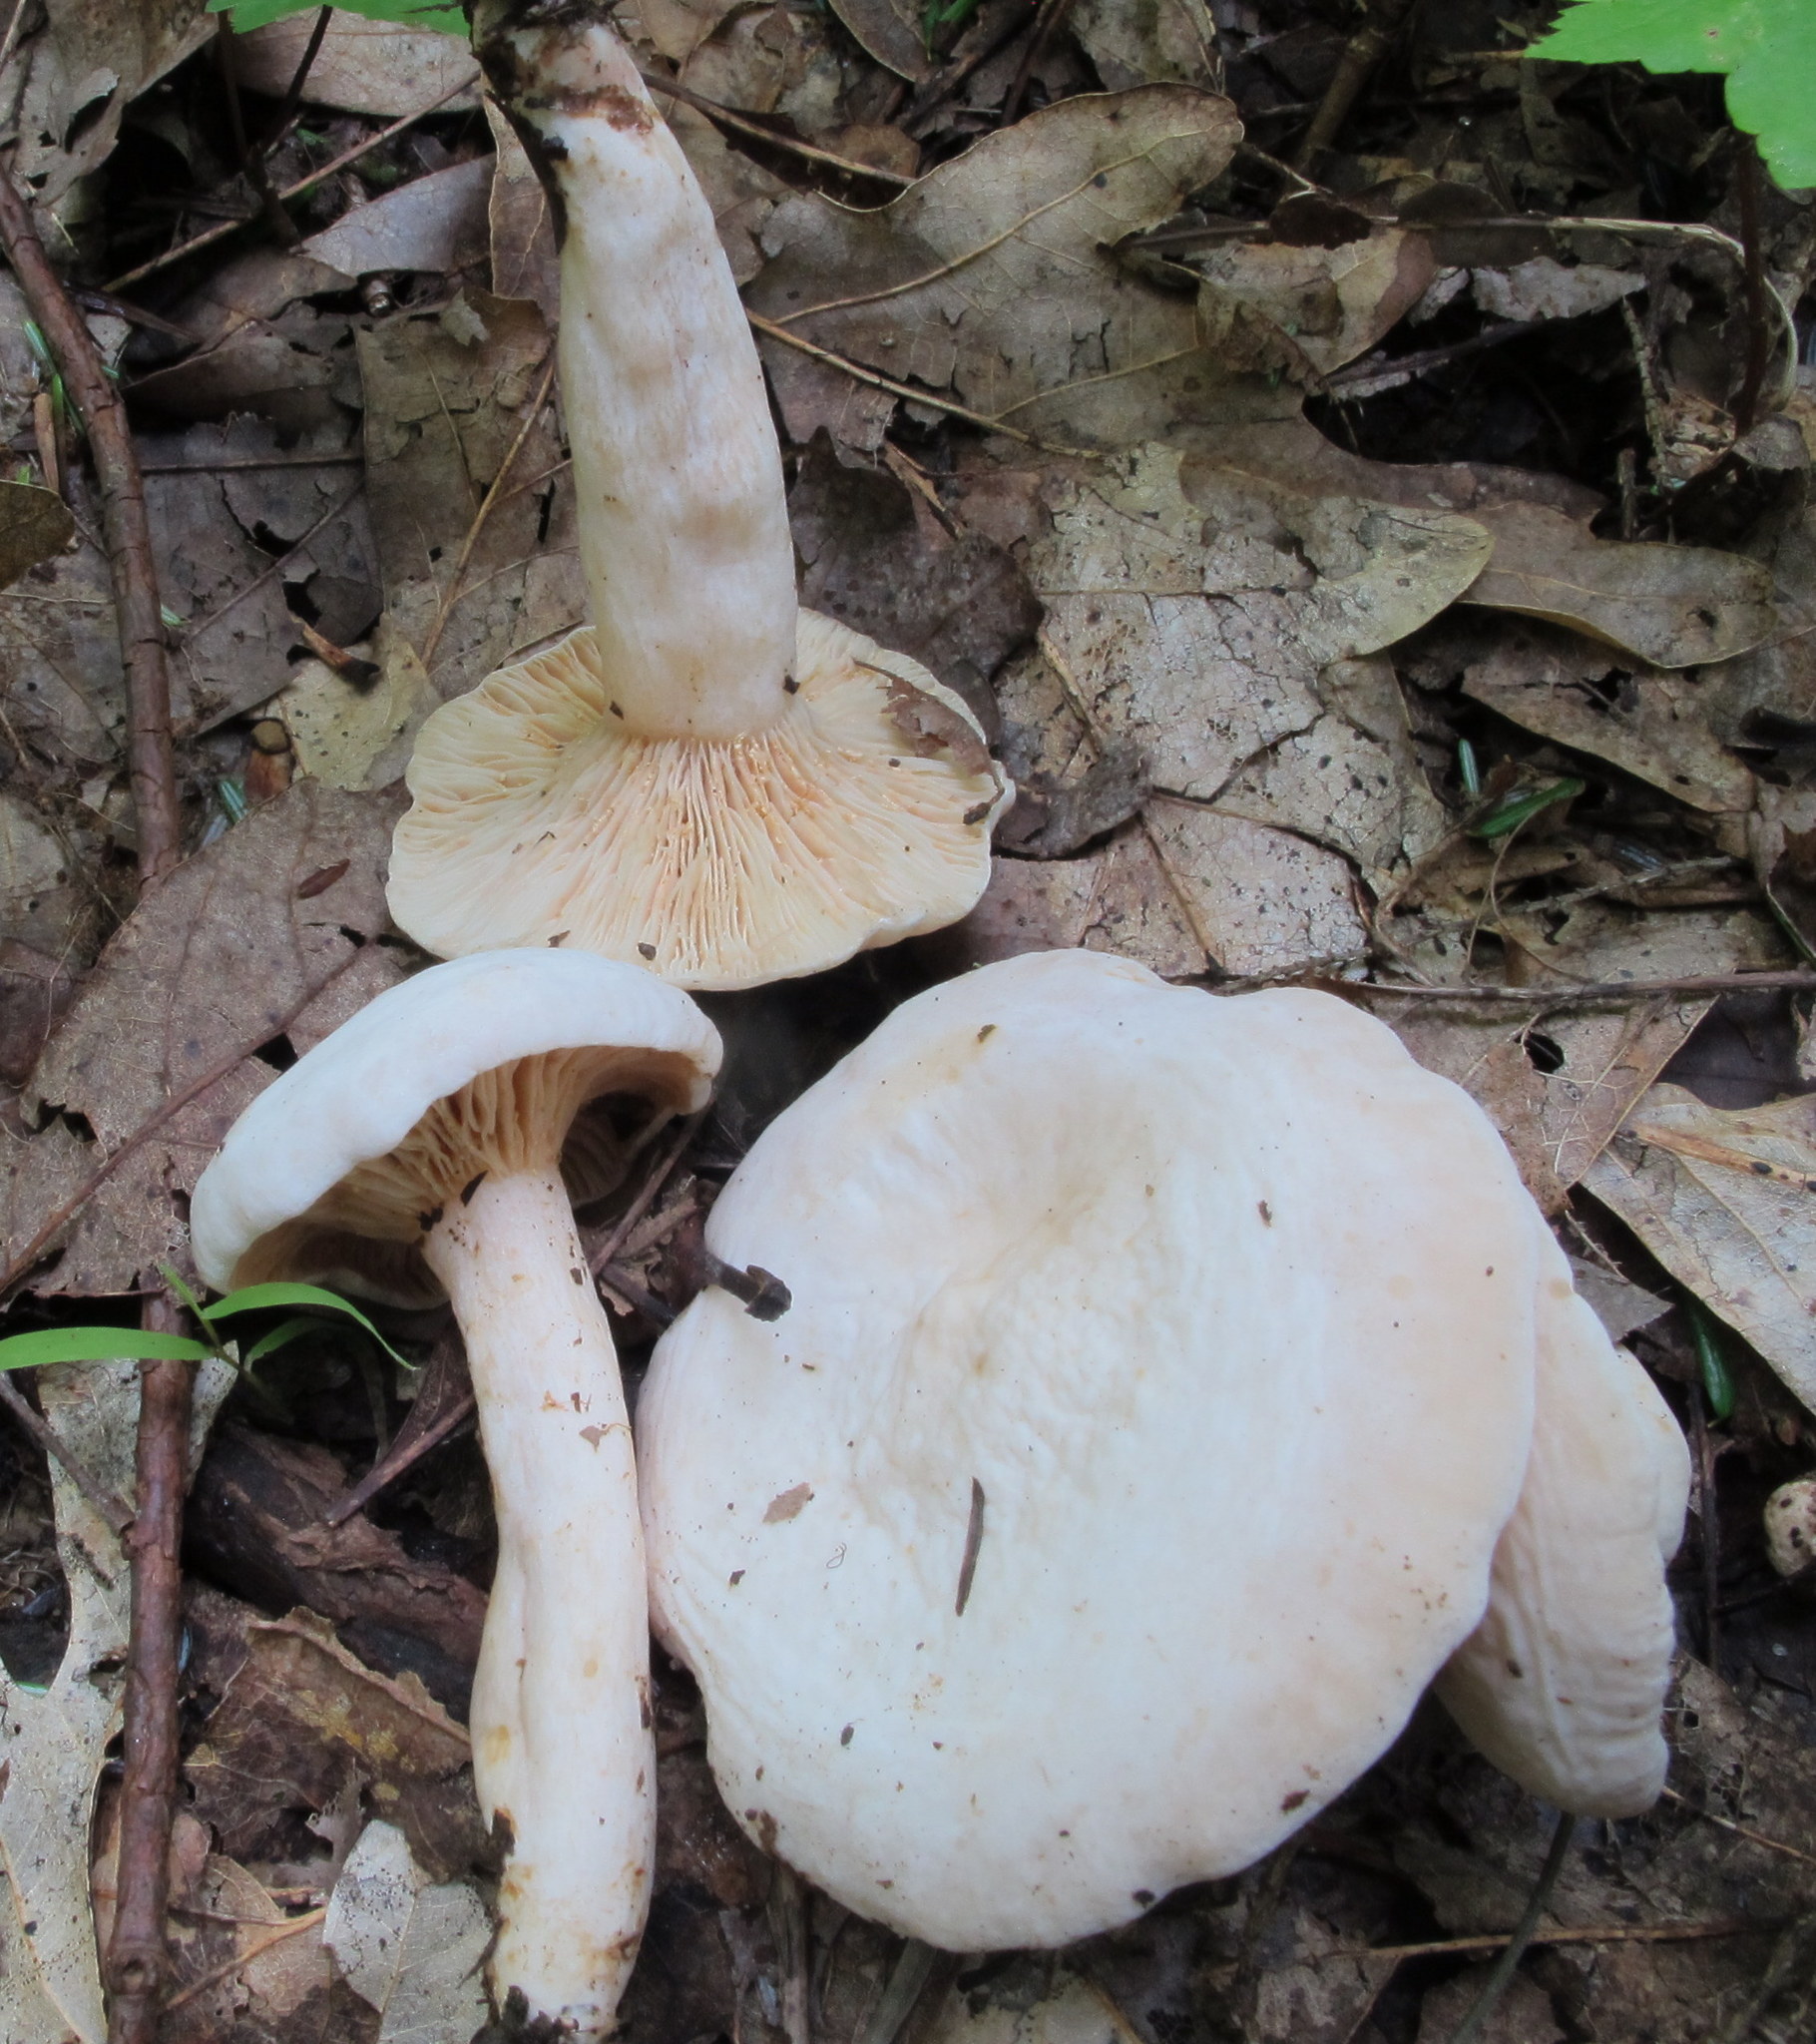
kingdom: Fungi
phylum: Basidiomycota
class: Agaricomycetes
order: Russulales
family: Russulaceae
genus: Lactarius
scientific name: Lactarius subvernalis
